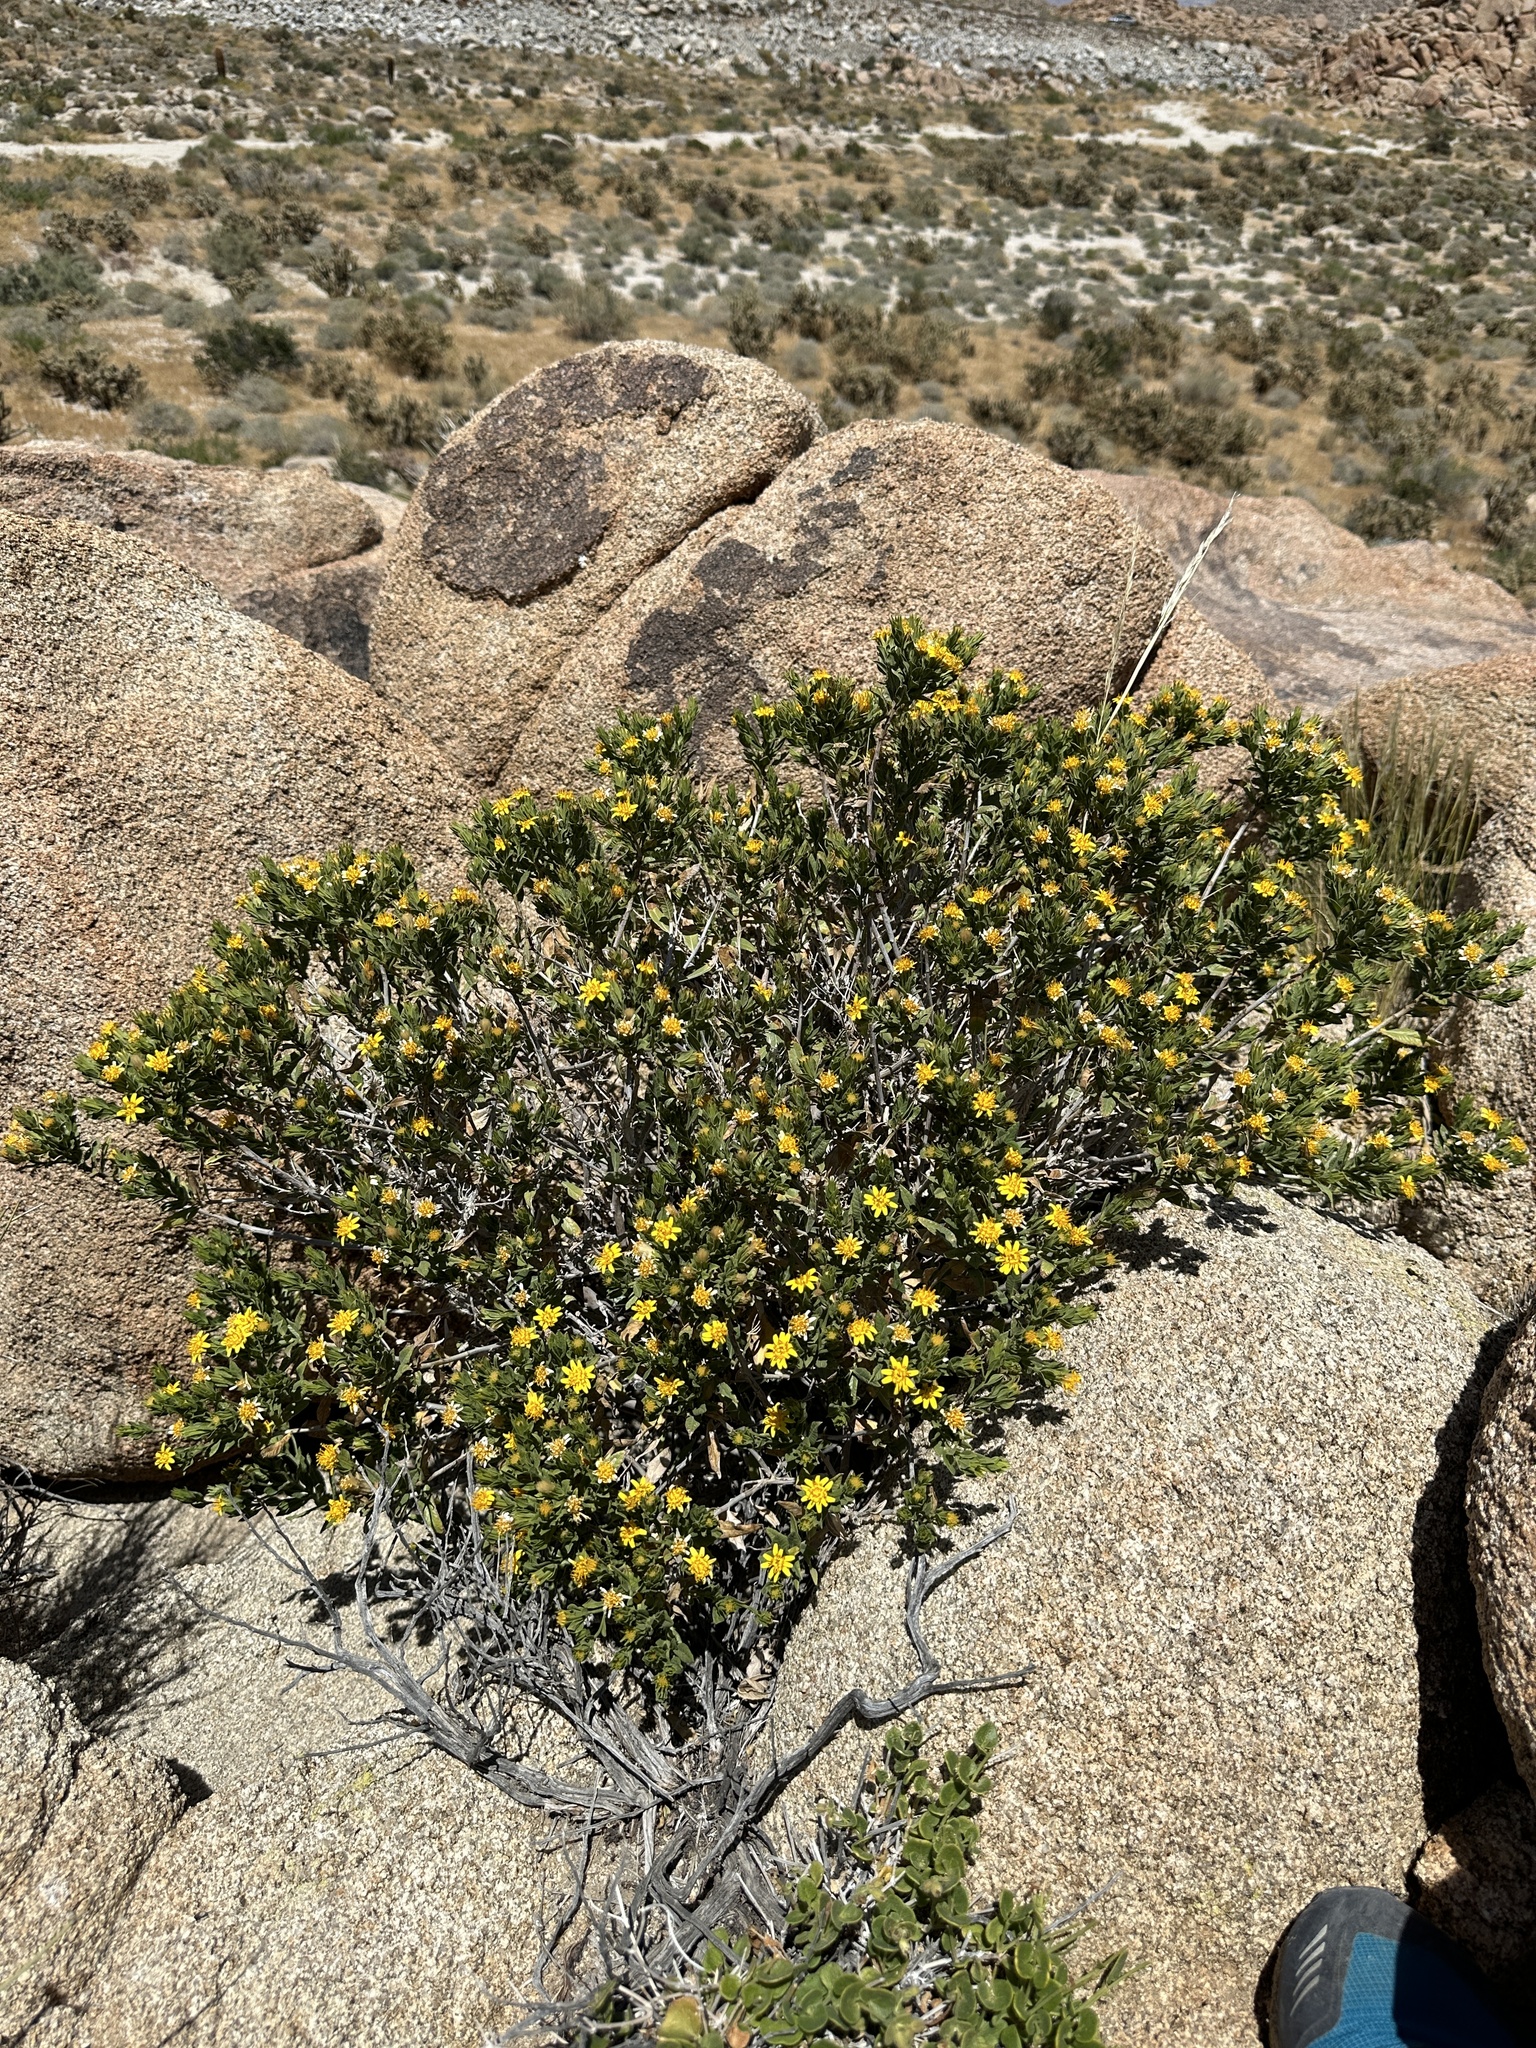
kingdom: Plantae
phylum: Tracheophyta
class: Magnoliopsida
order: Asterales
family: Asteraceae
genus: Trixis
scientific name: Trixis californica
